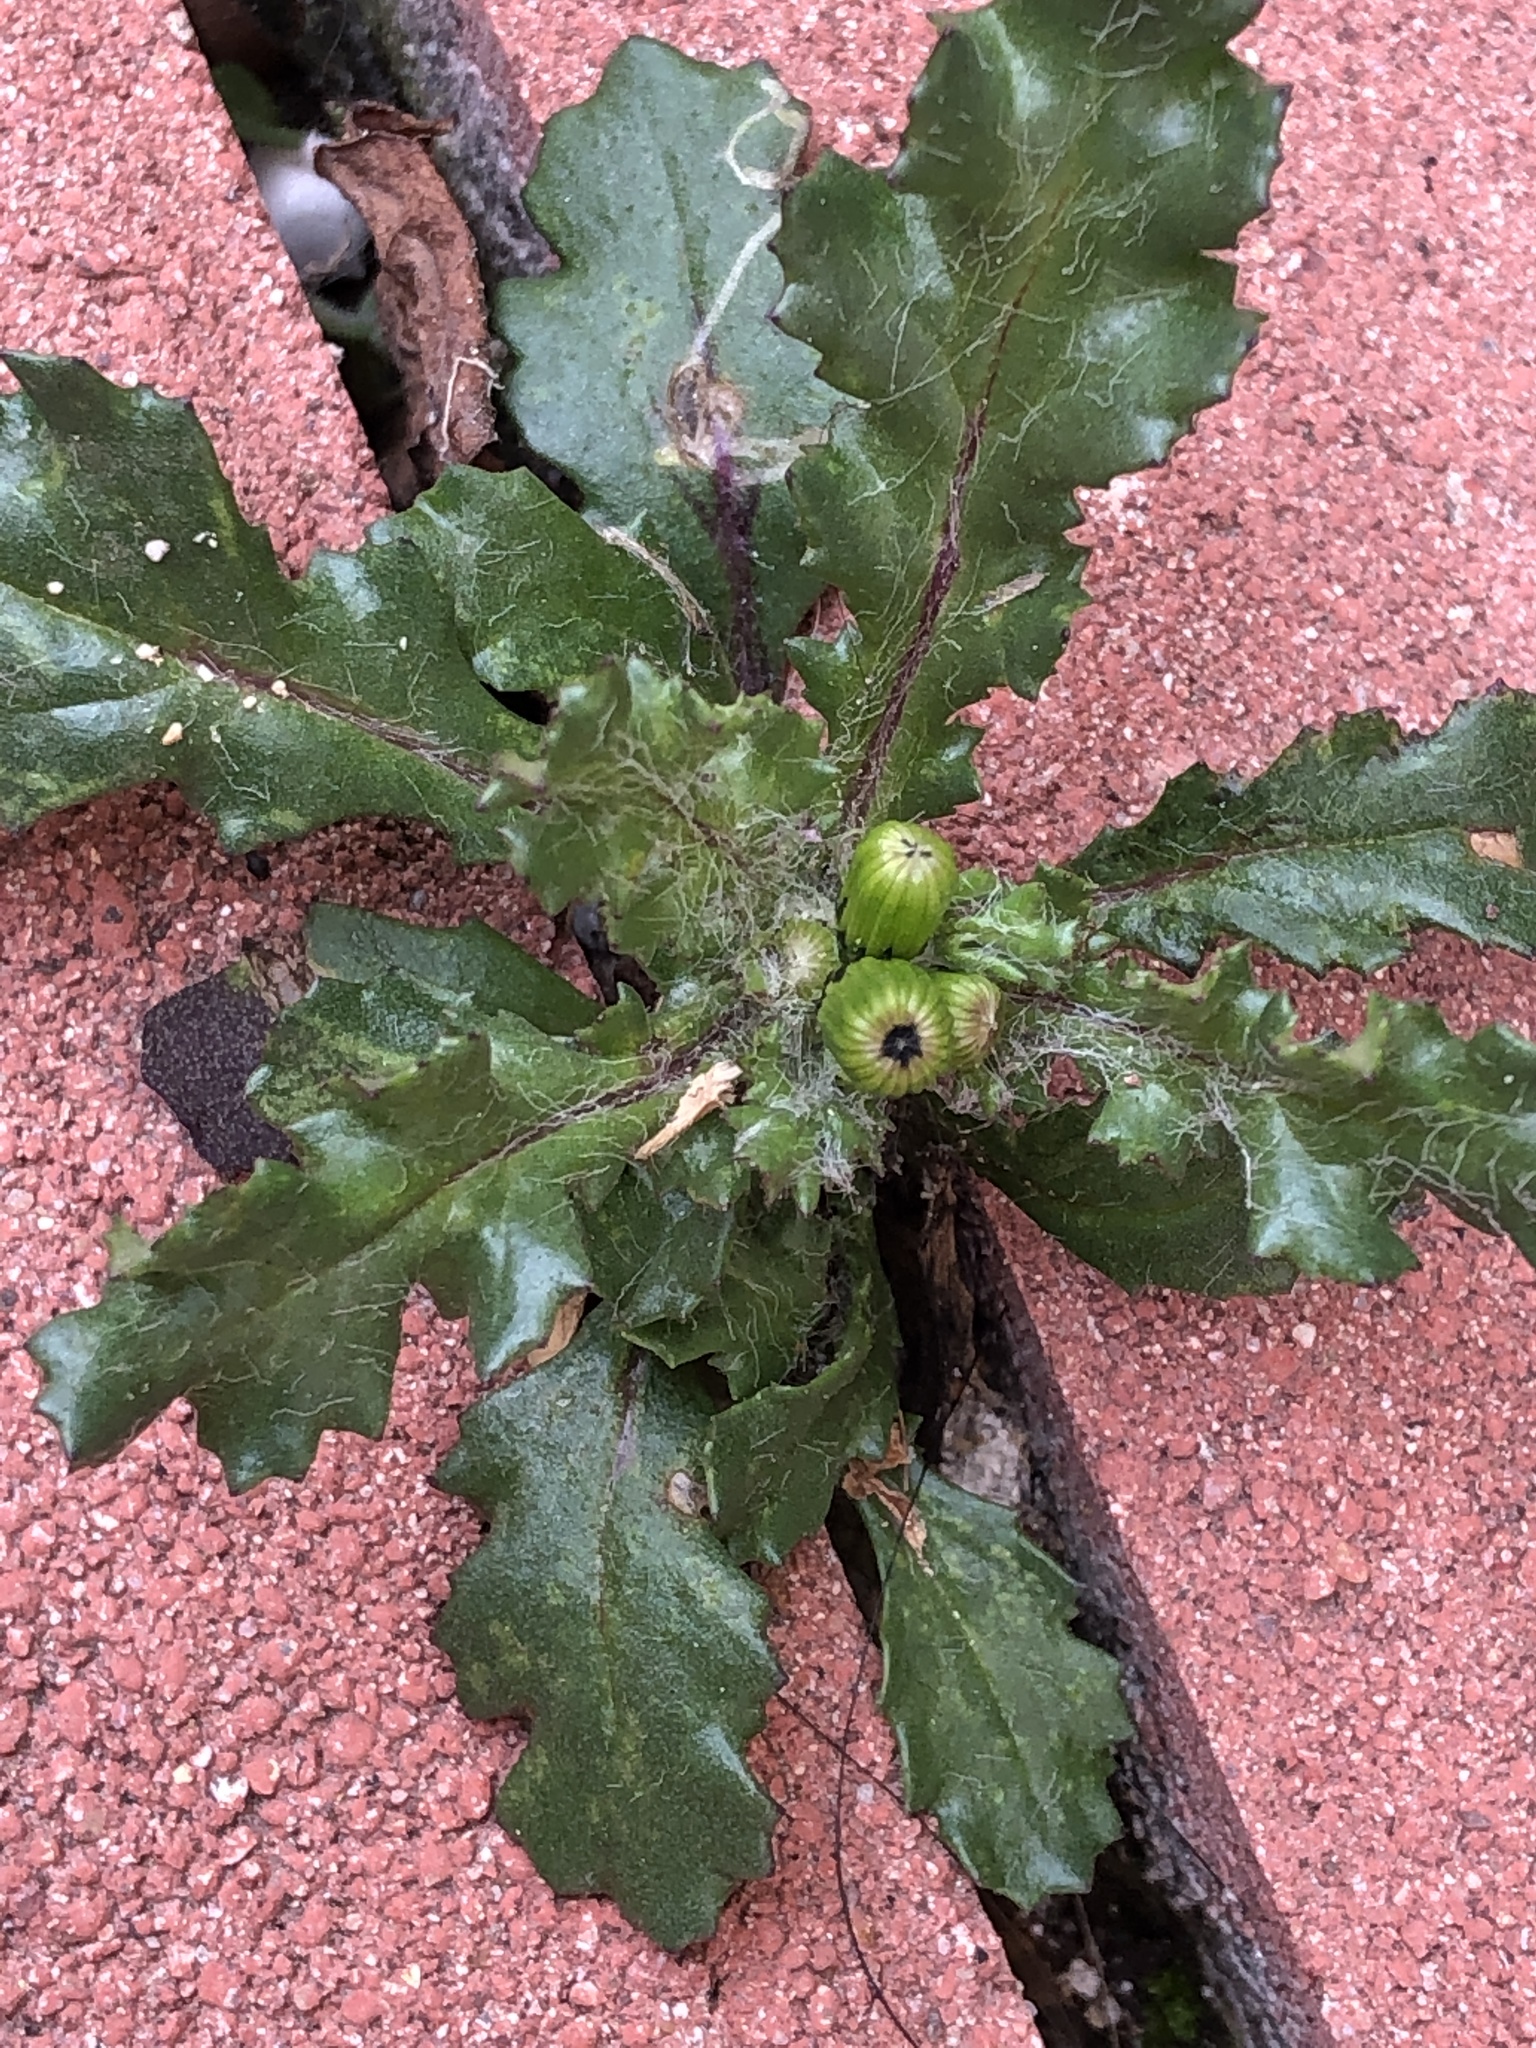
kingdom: Plantae
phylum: Tracheophyta
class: Magnoliopsida
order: Asterales
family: Asteraceae
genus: Senecio
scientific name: Senecio vulgaris
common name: Old-man-in-the-spring
